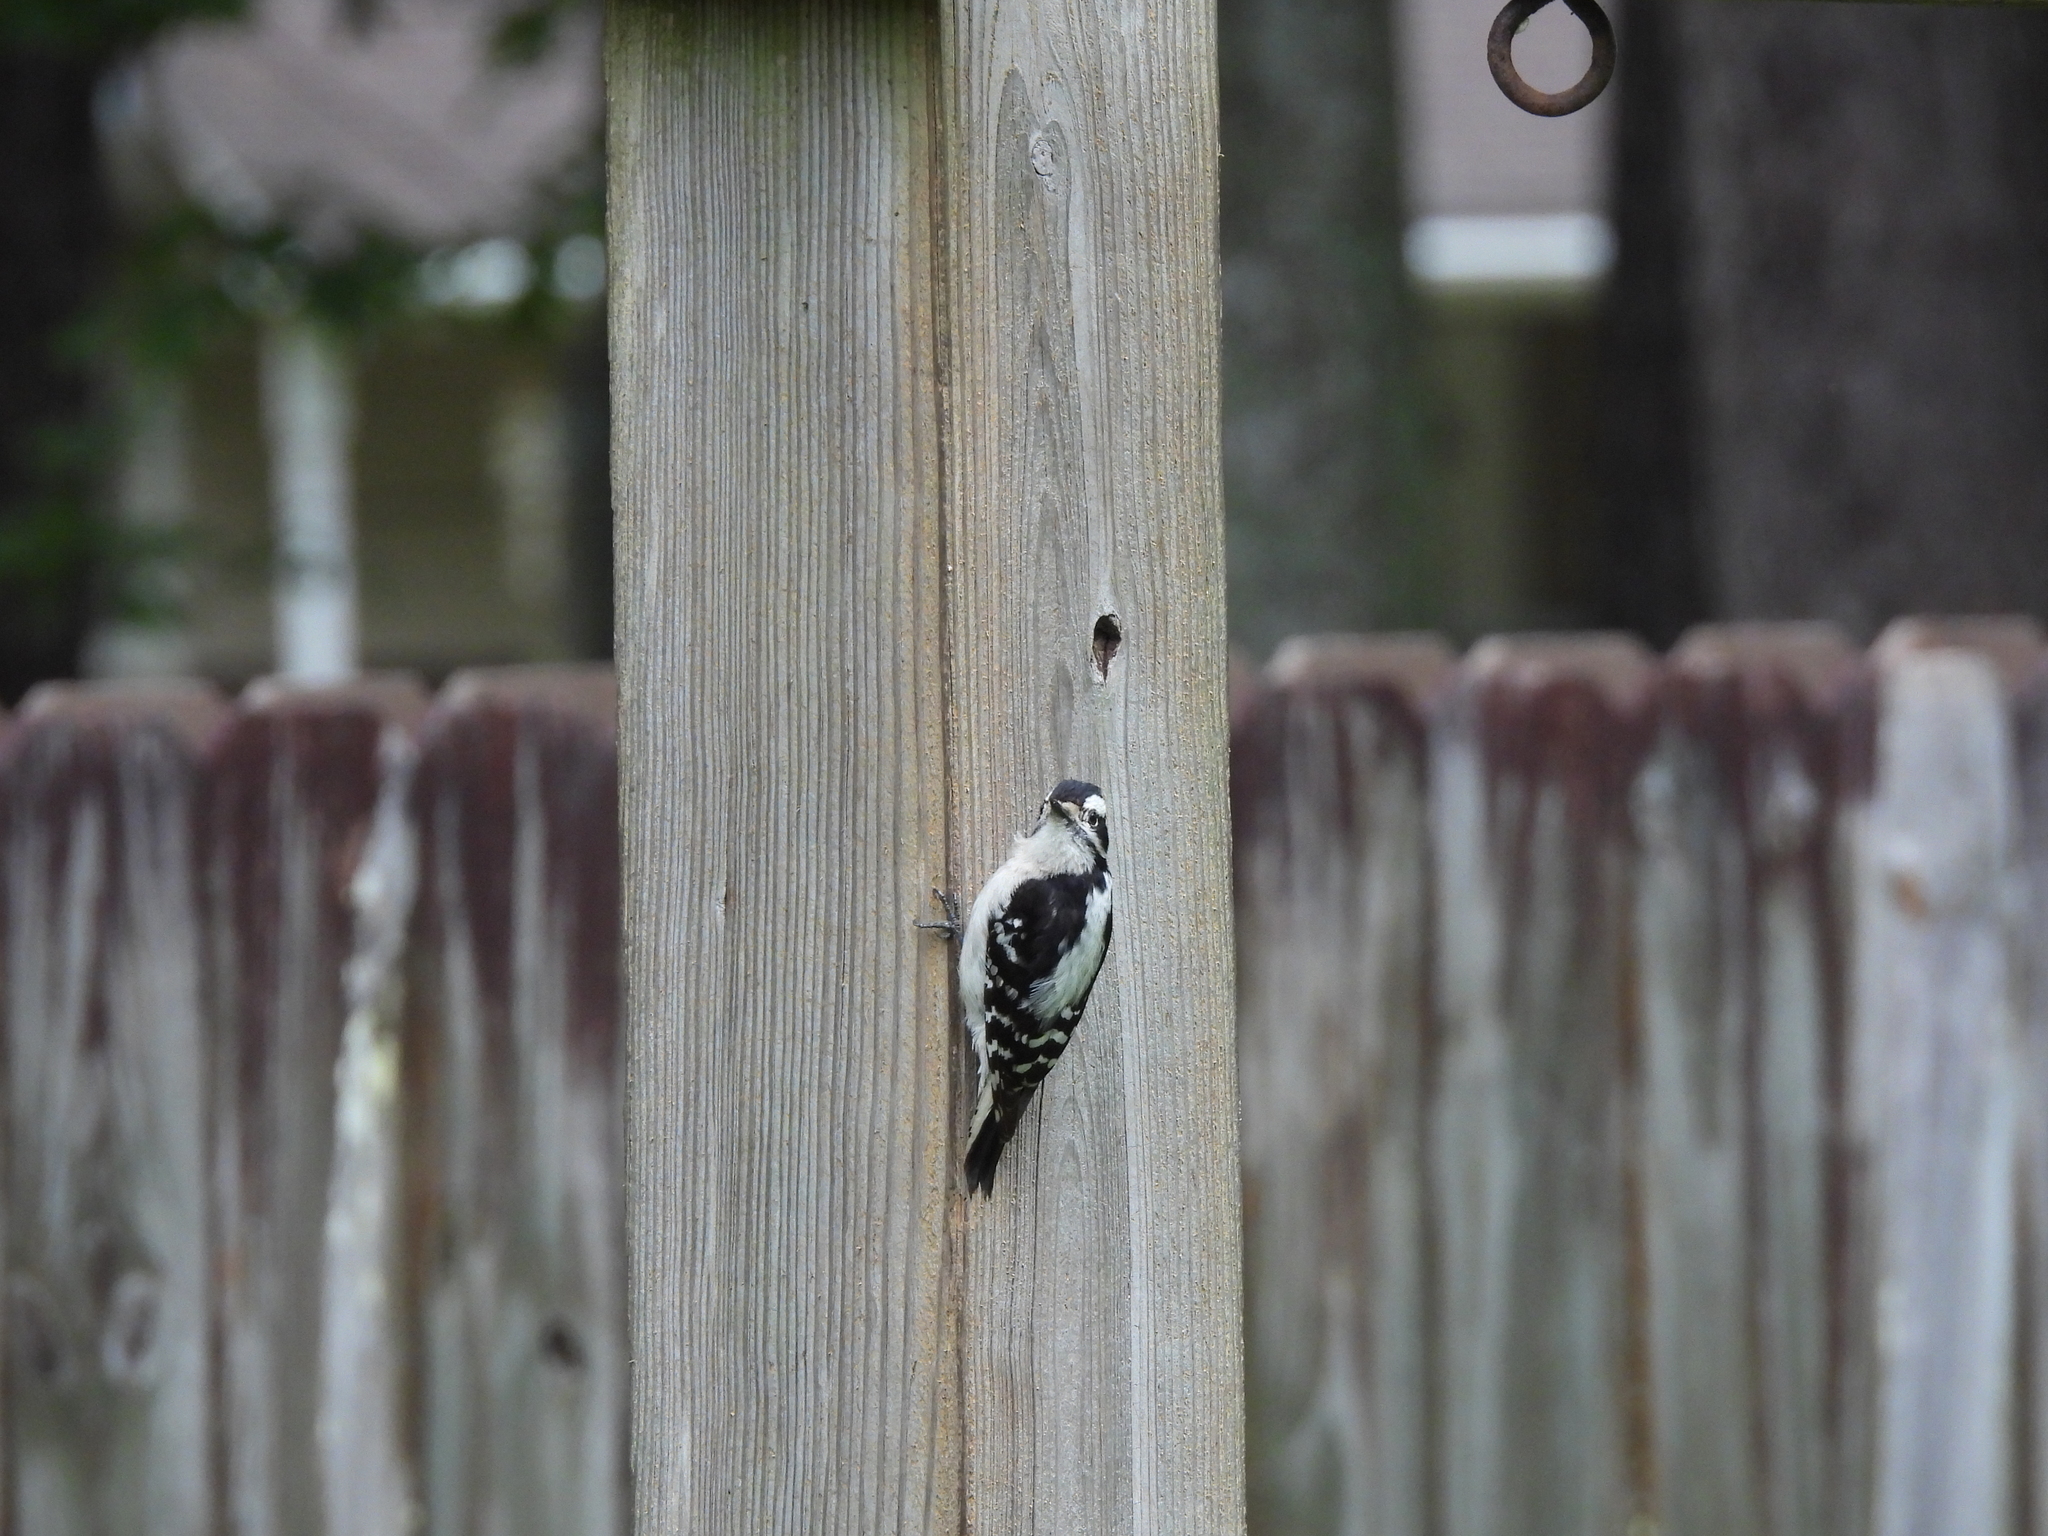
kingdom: Animalia
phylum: Chordata
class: Aves
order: Piciformes
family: Picidae
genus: Dryobates
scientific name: Dryobates pubescens
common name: Downy woodpecker
